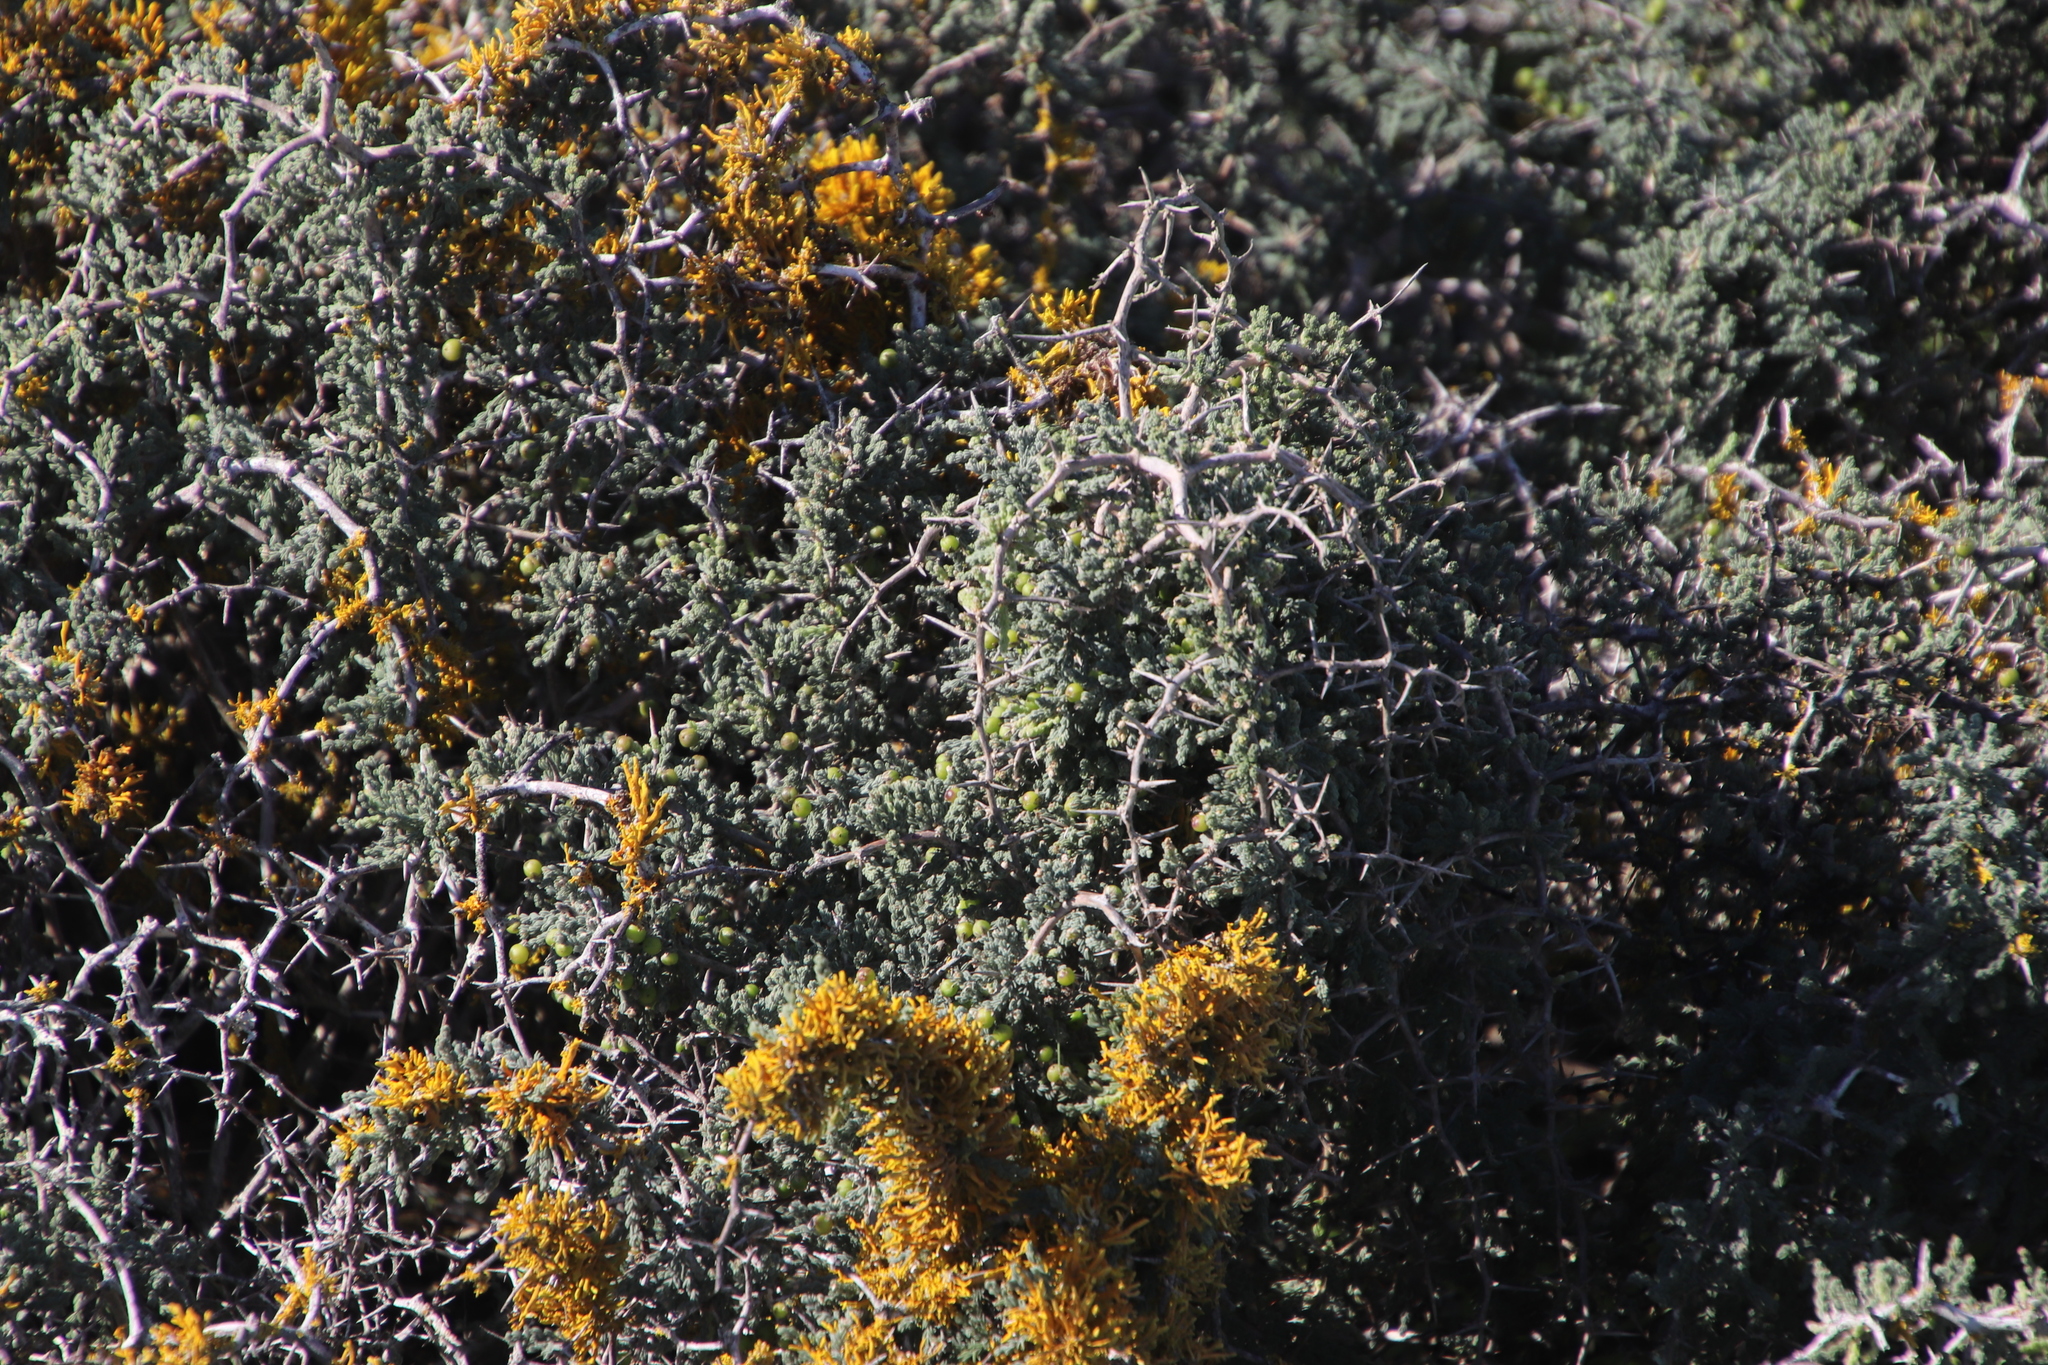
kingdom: Plantae
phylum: Tracheophyta
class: Liliopsida
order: Asparagales
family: Asparagaceae
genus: Asparagus
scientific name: Asparagus capensis
